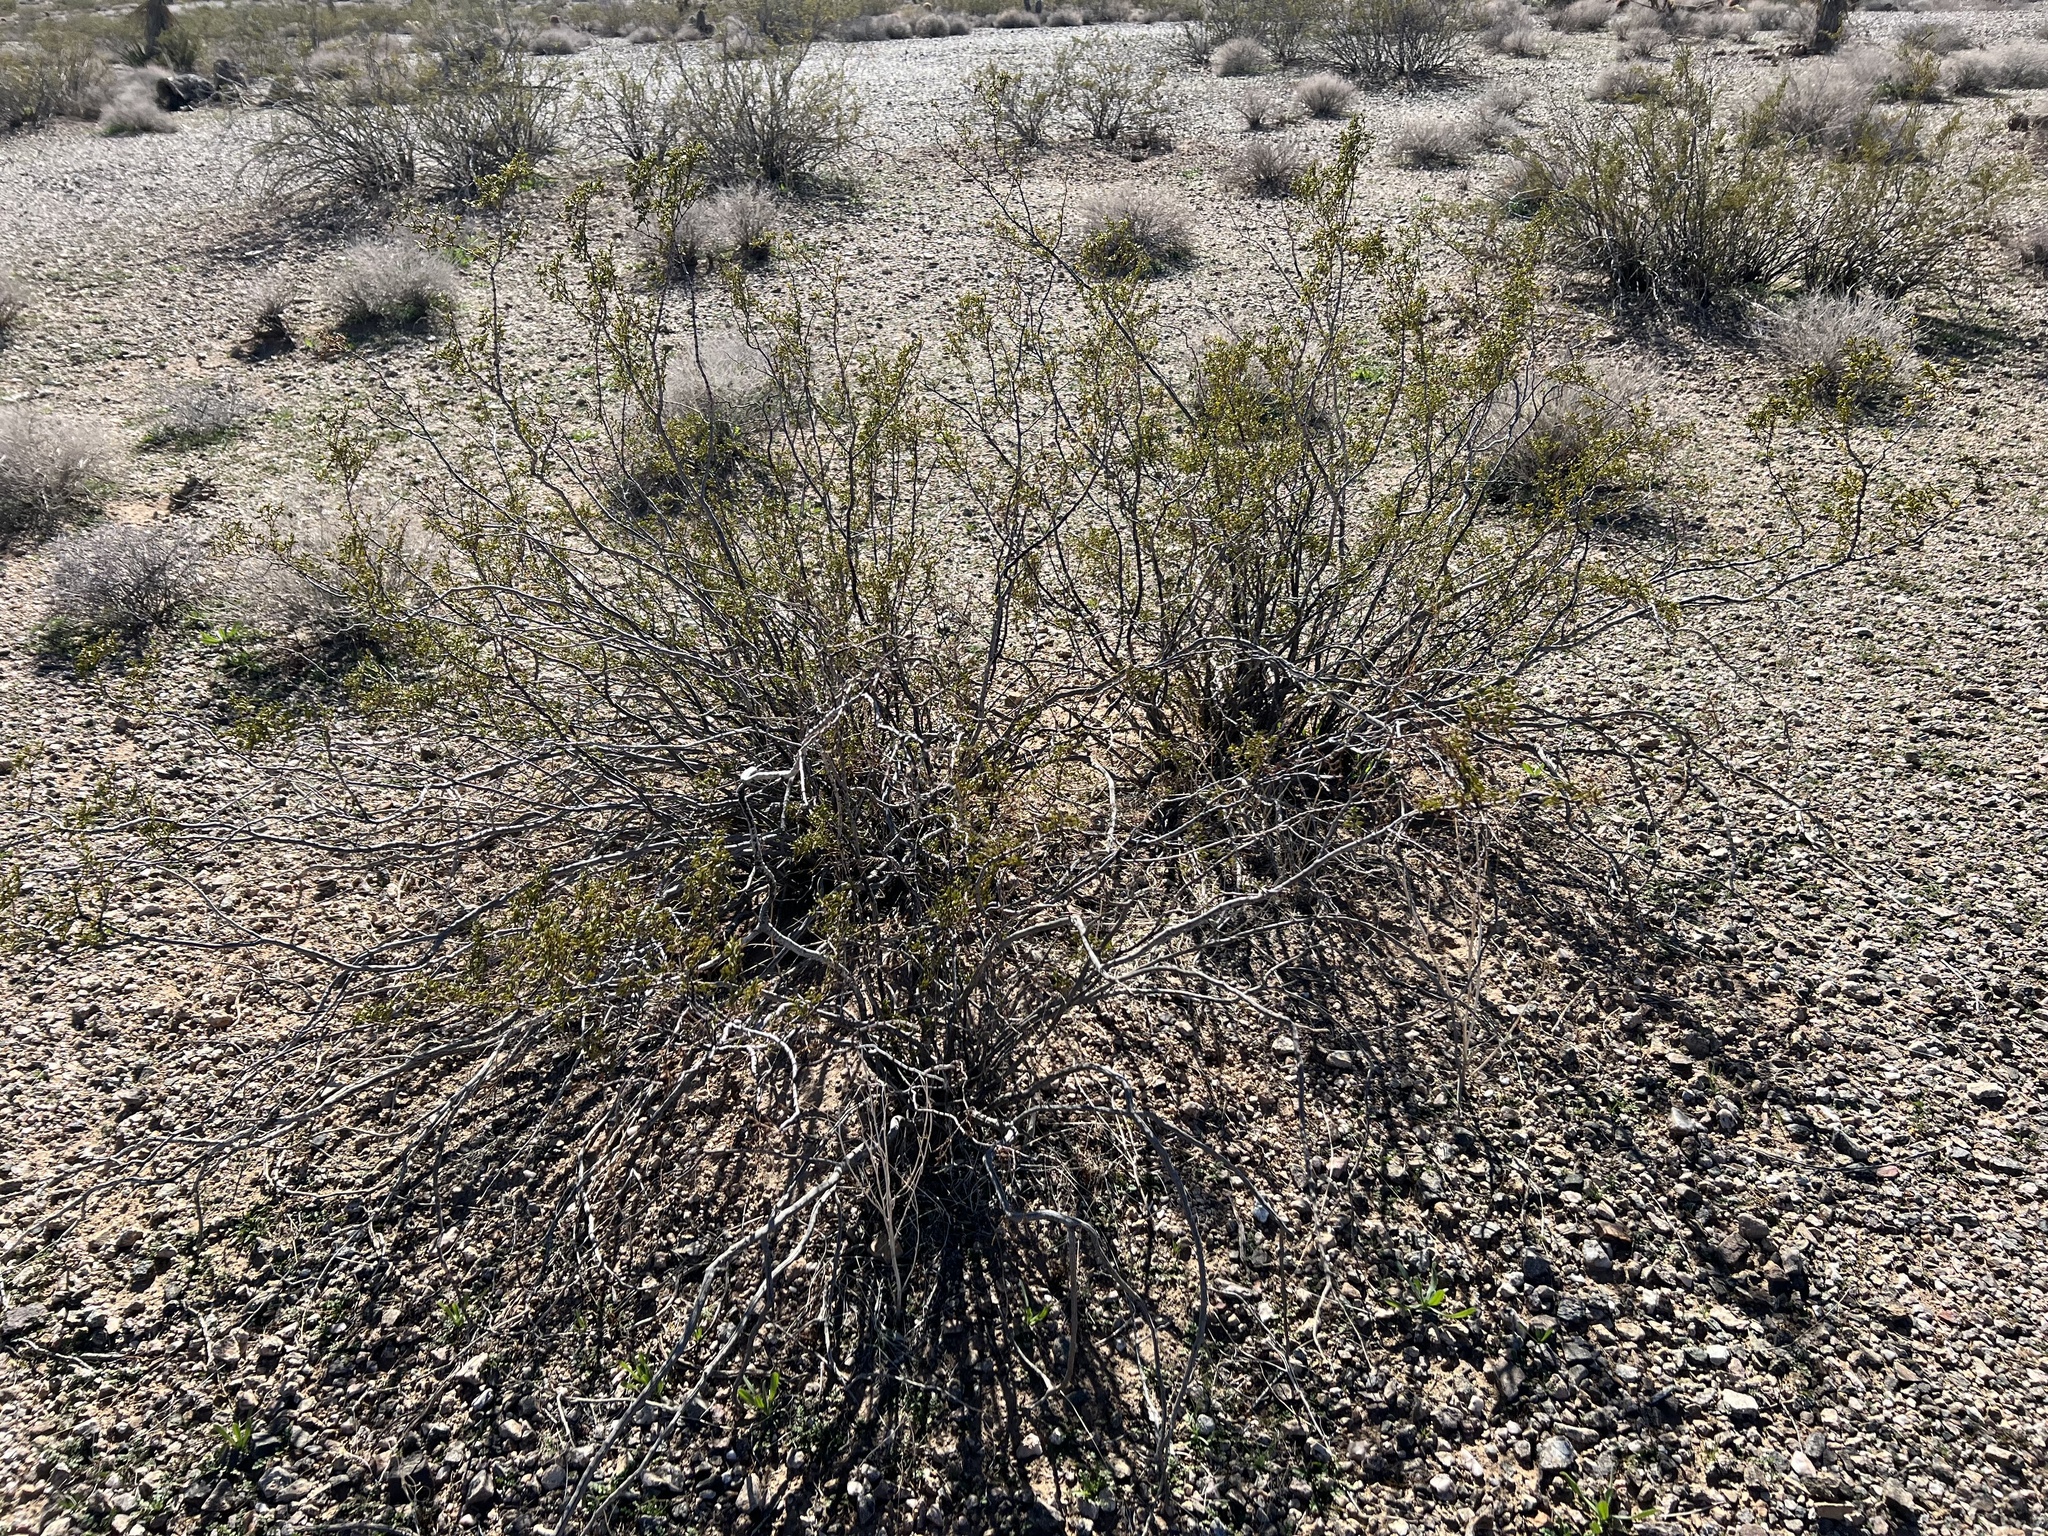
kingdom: Plantae
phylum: Tracheophyta
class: Magnoliopsida
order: Zygophyllales
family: Zygophyllaceae
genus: Larrea
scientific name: Larrea tridentata
